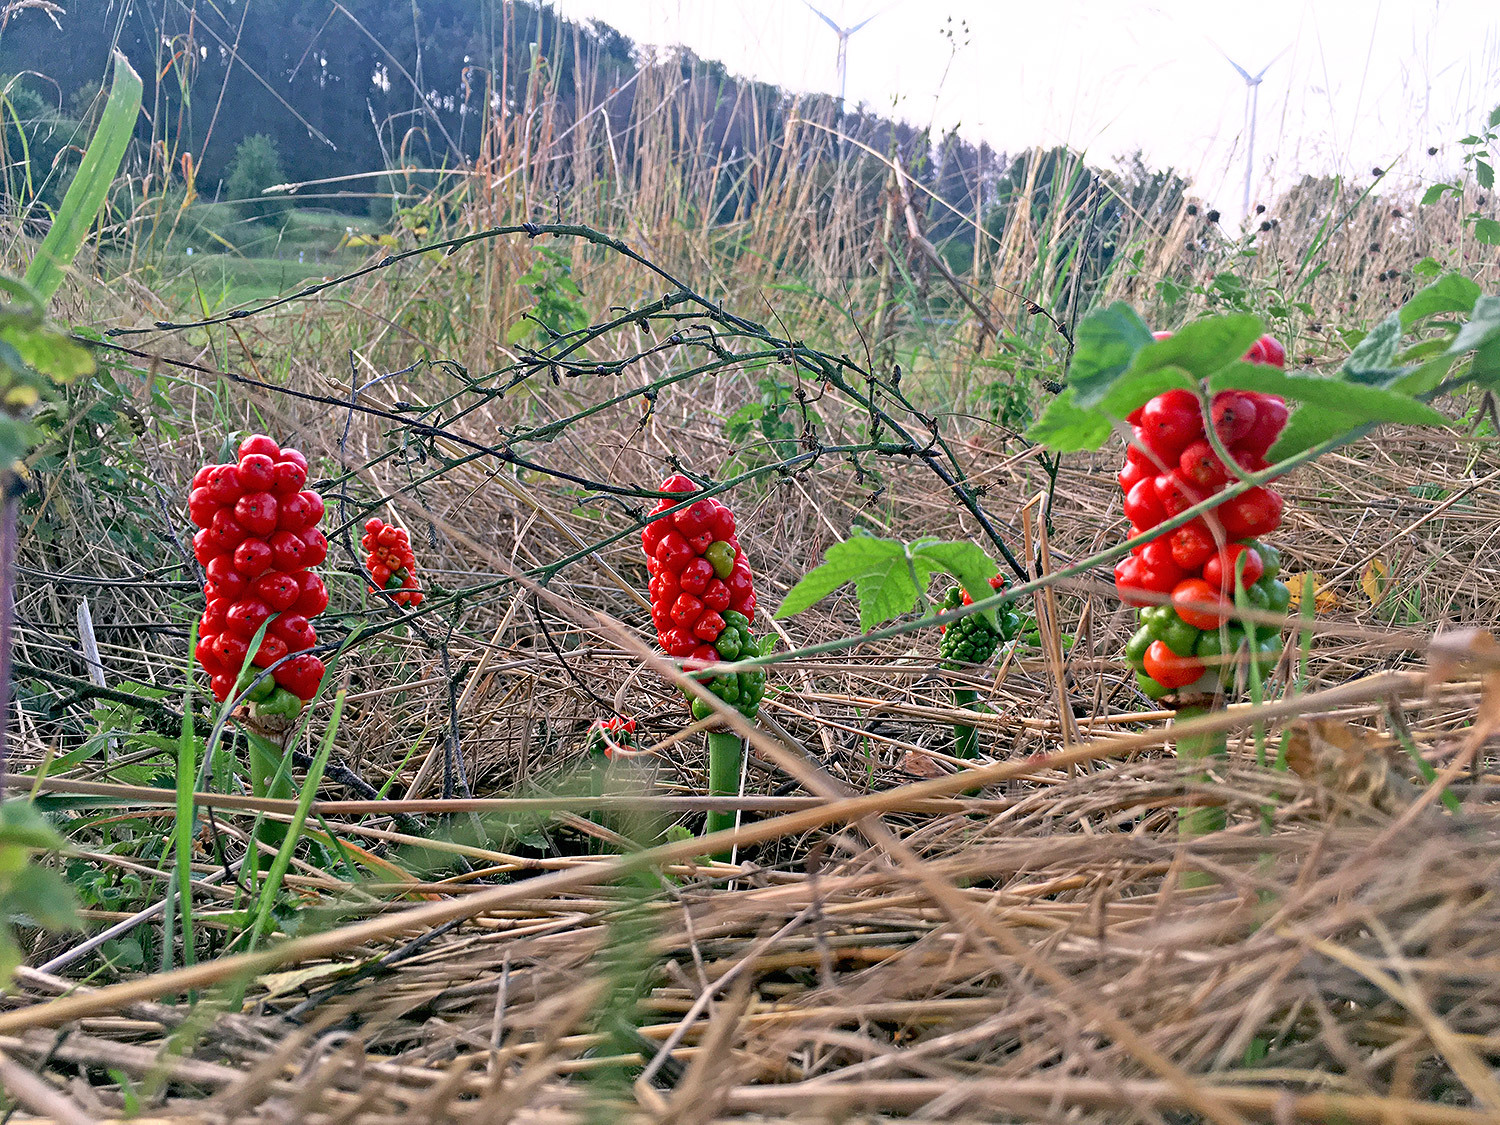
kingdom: Plantae
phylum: Tracheophyta
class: Liliopsida
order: Alismatales
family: Araceae
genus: Arum
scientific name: Arum maculatum
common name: Lords-and-ladies
